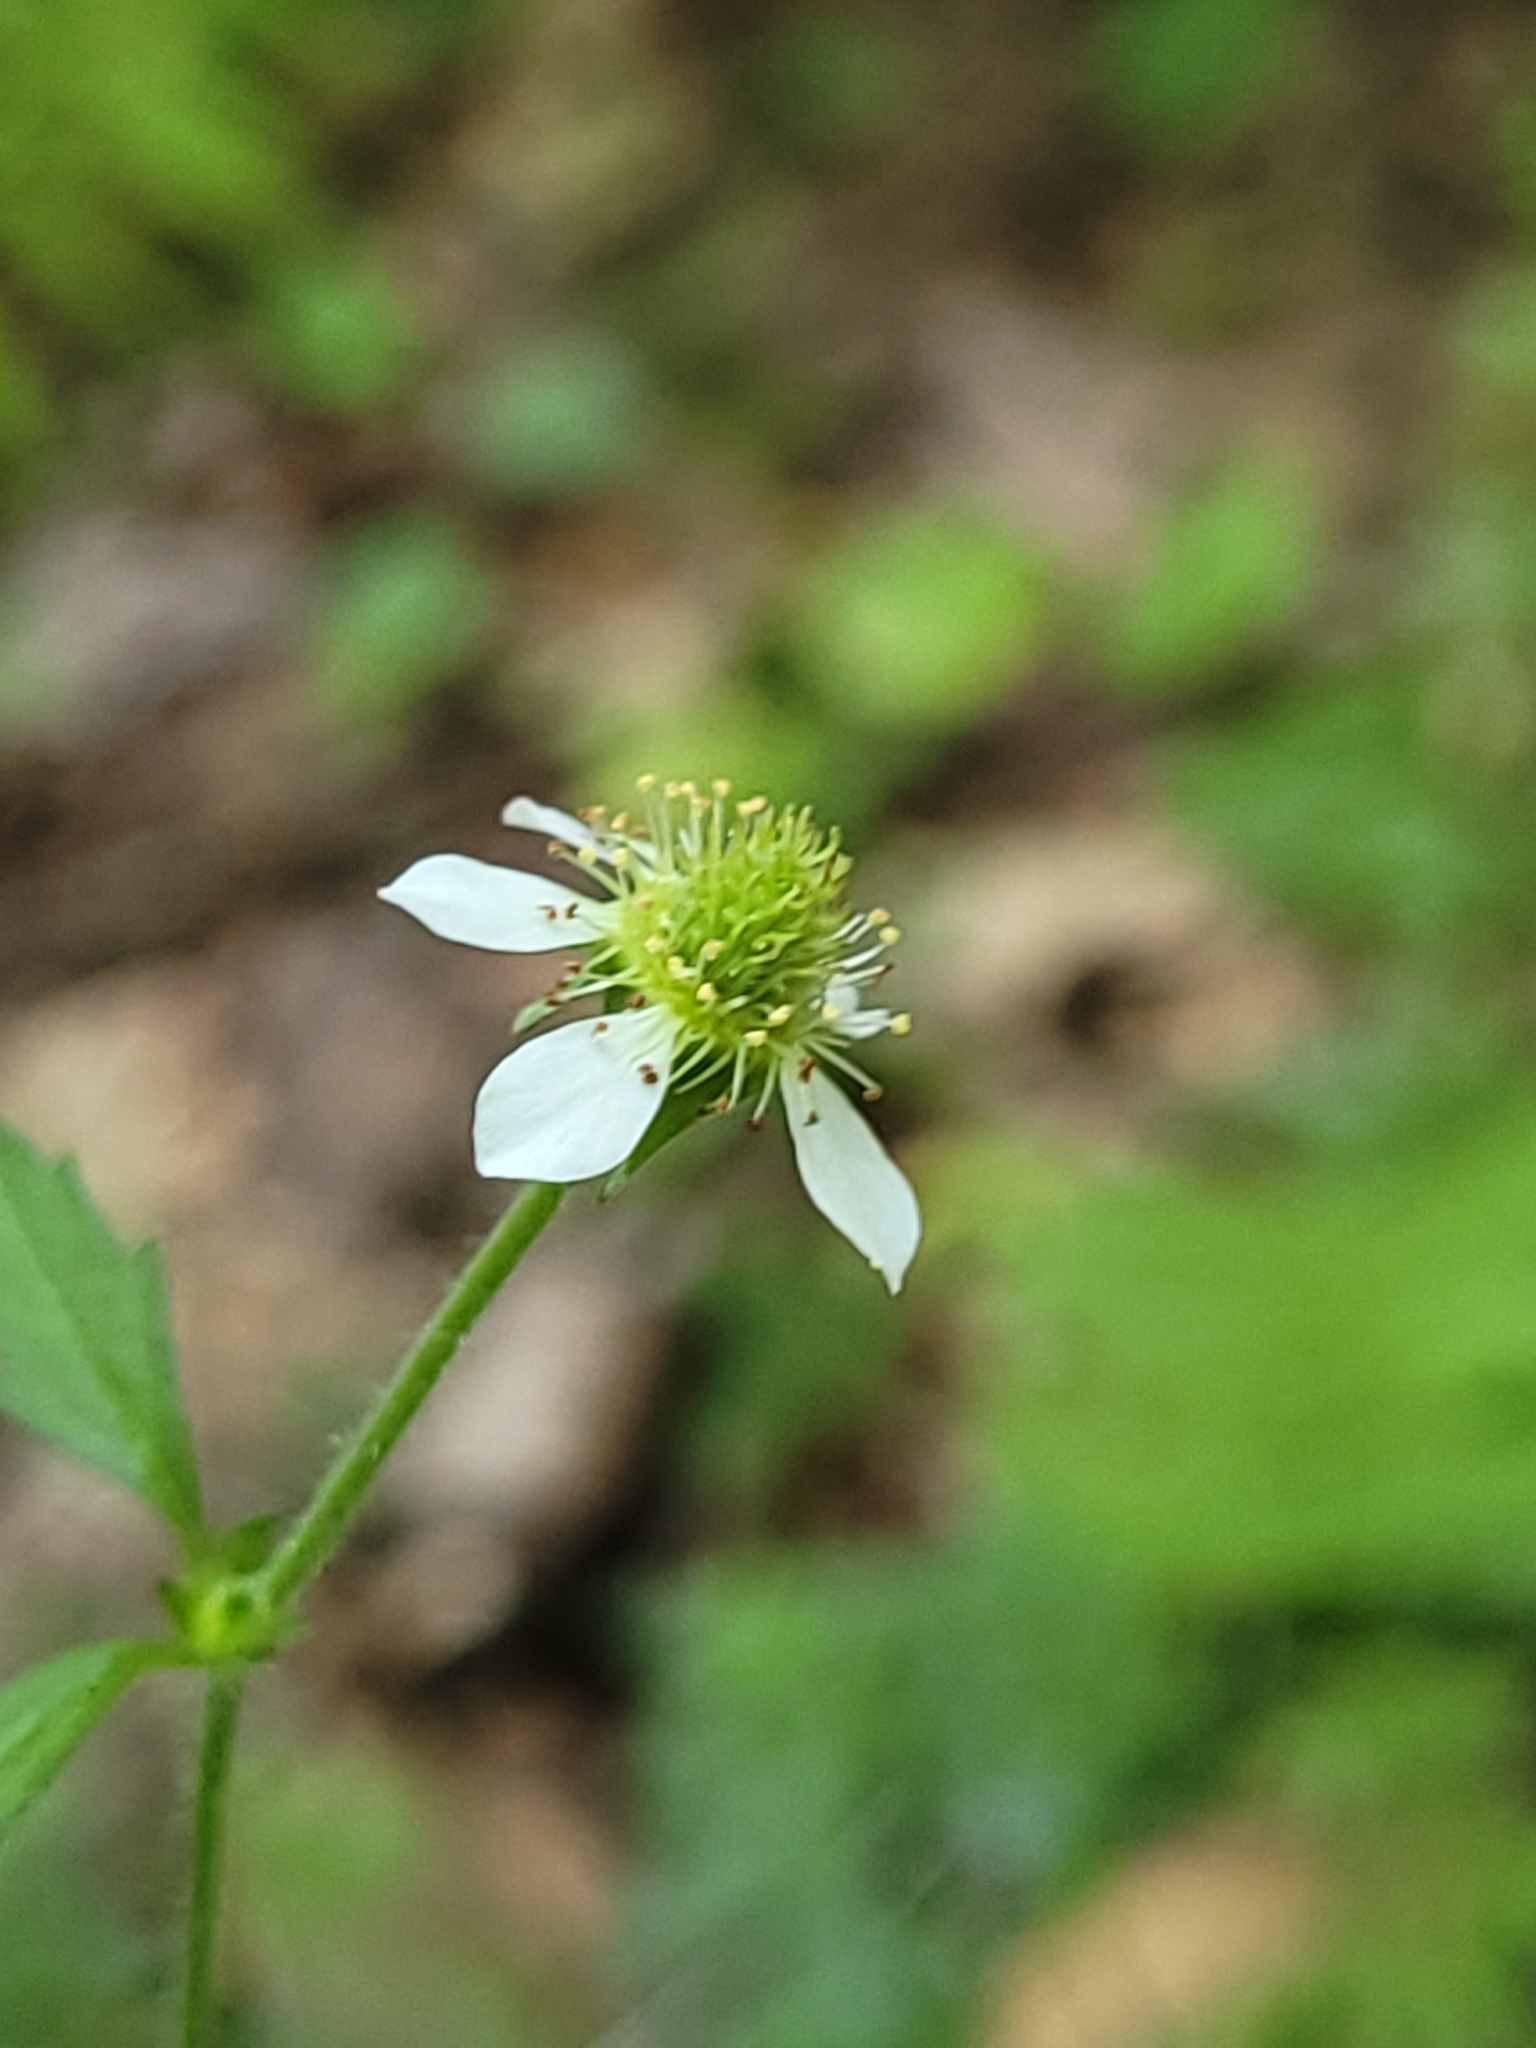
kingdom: Plantae
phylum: Tracheophyta
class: Magnoliopsida
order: Rosales
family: Rosaceae
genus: Geum
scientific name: Geum canadense
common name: White avens
